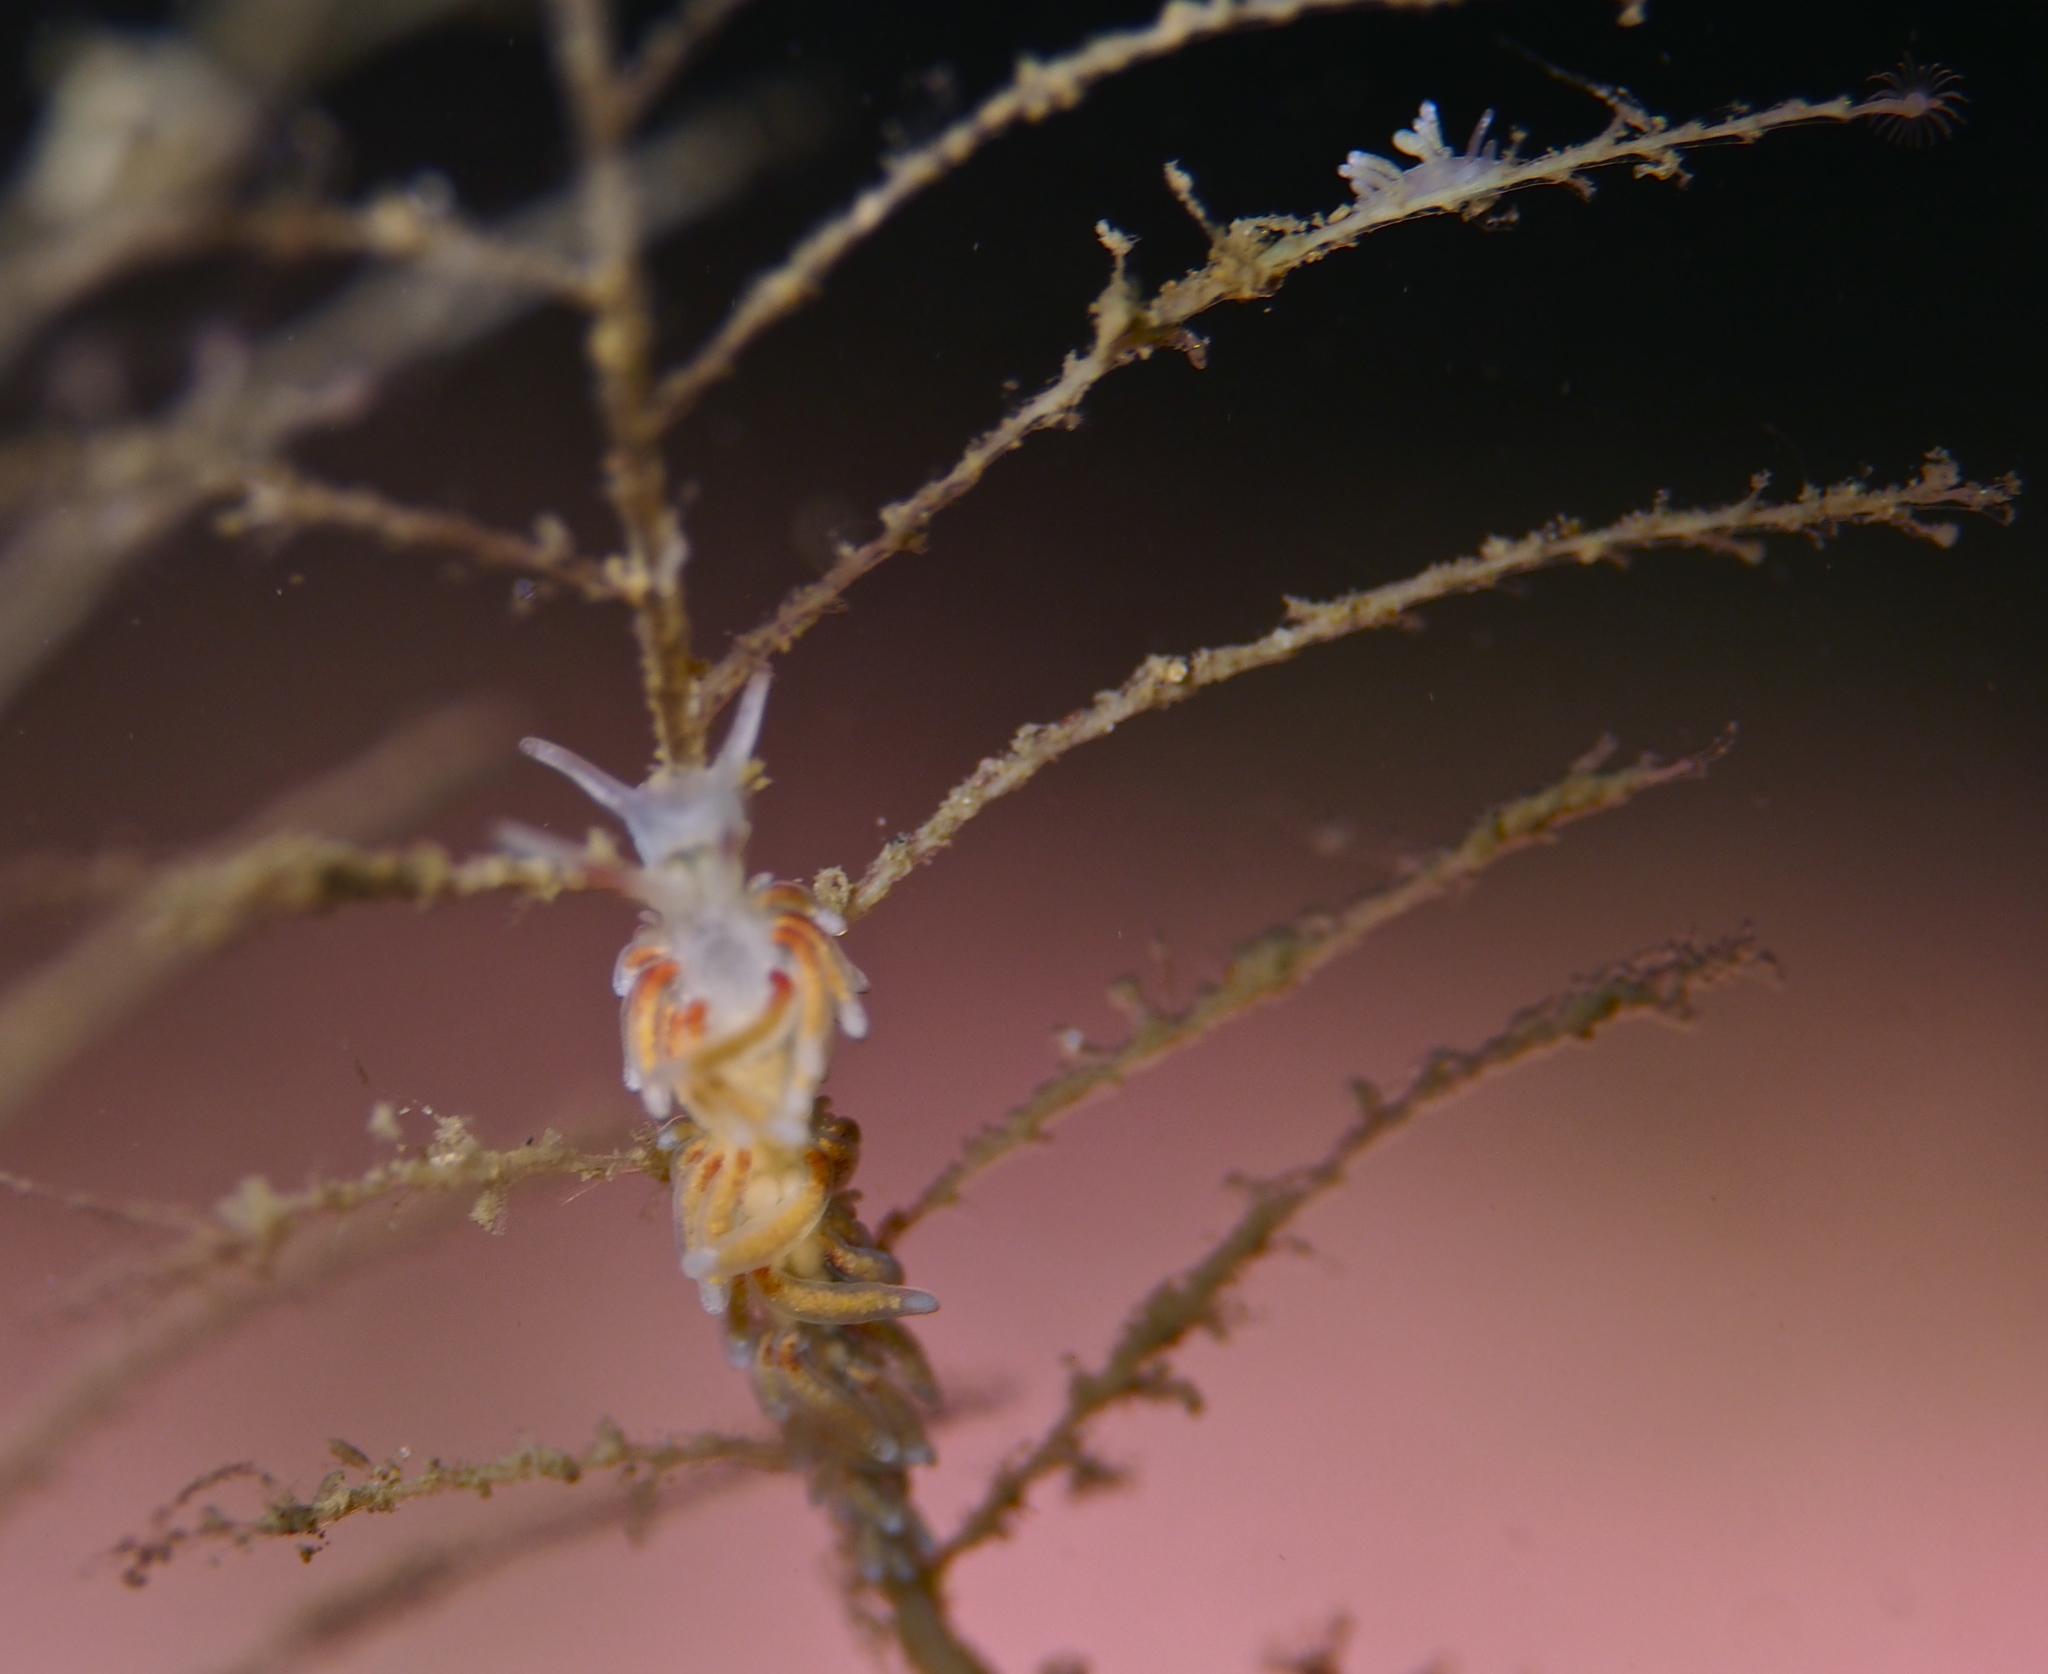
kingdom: Animalia
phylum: Mollusca
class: Gastropoda
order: Nudibranchia
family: Trinchesiidae
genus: Rubramoena
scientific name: Rubramoena rubescens
